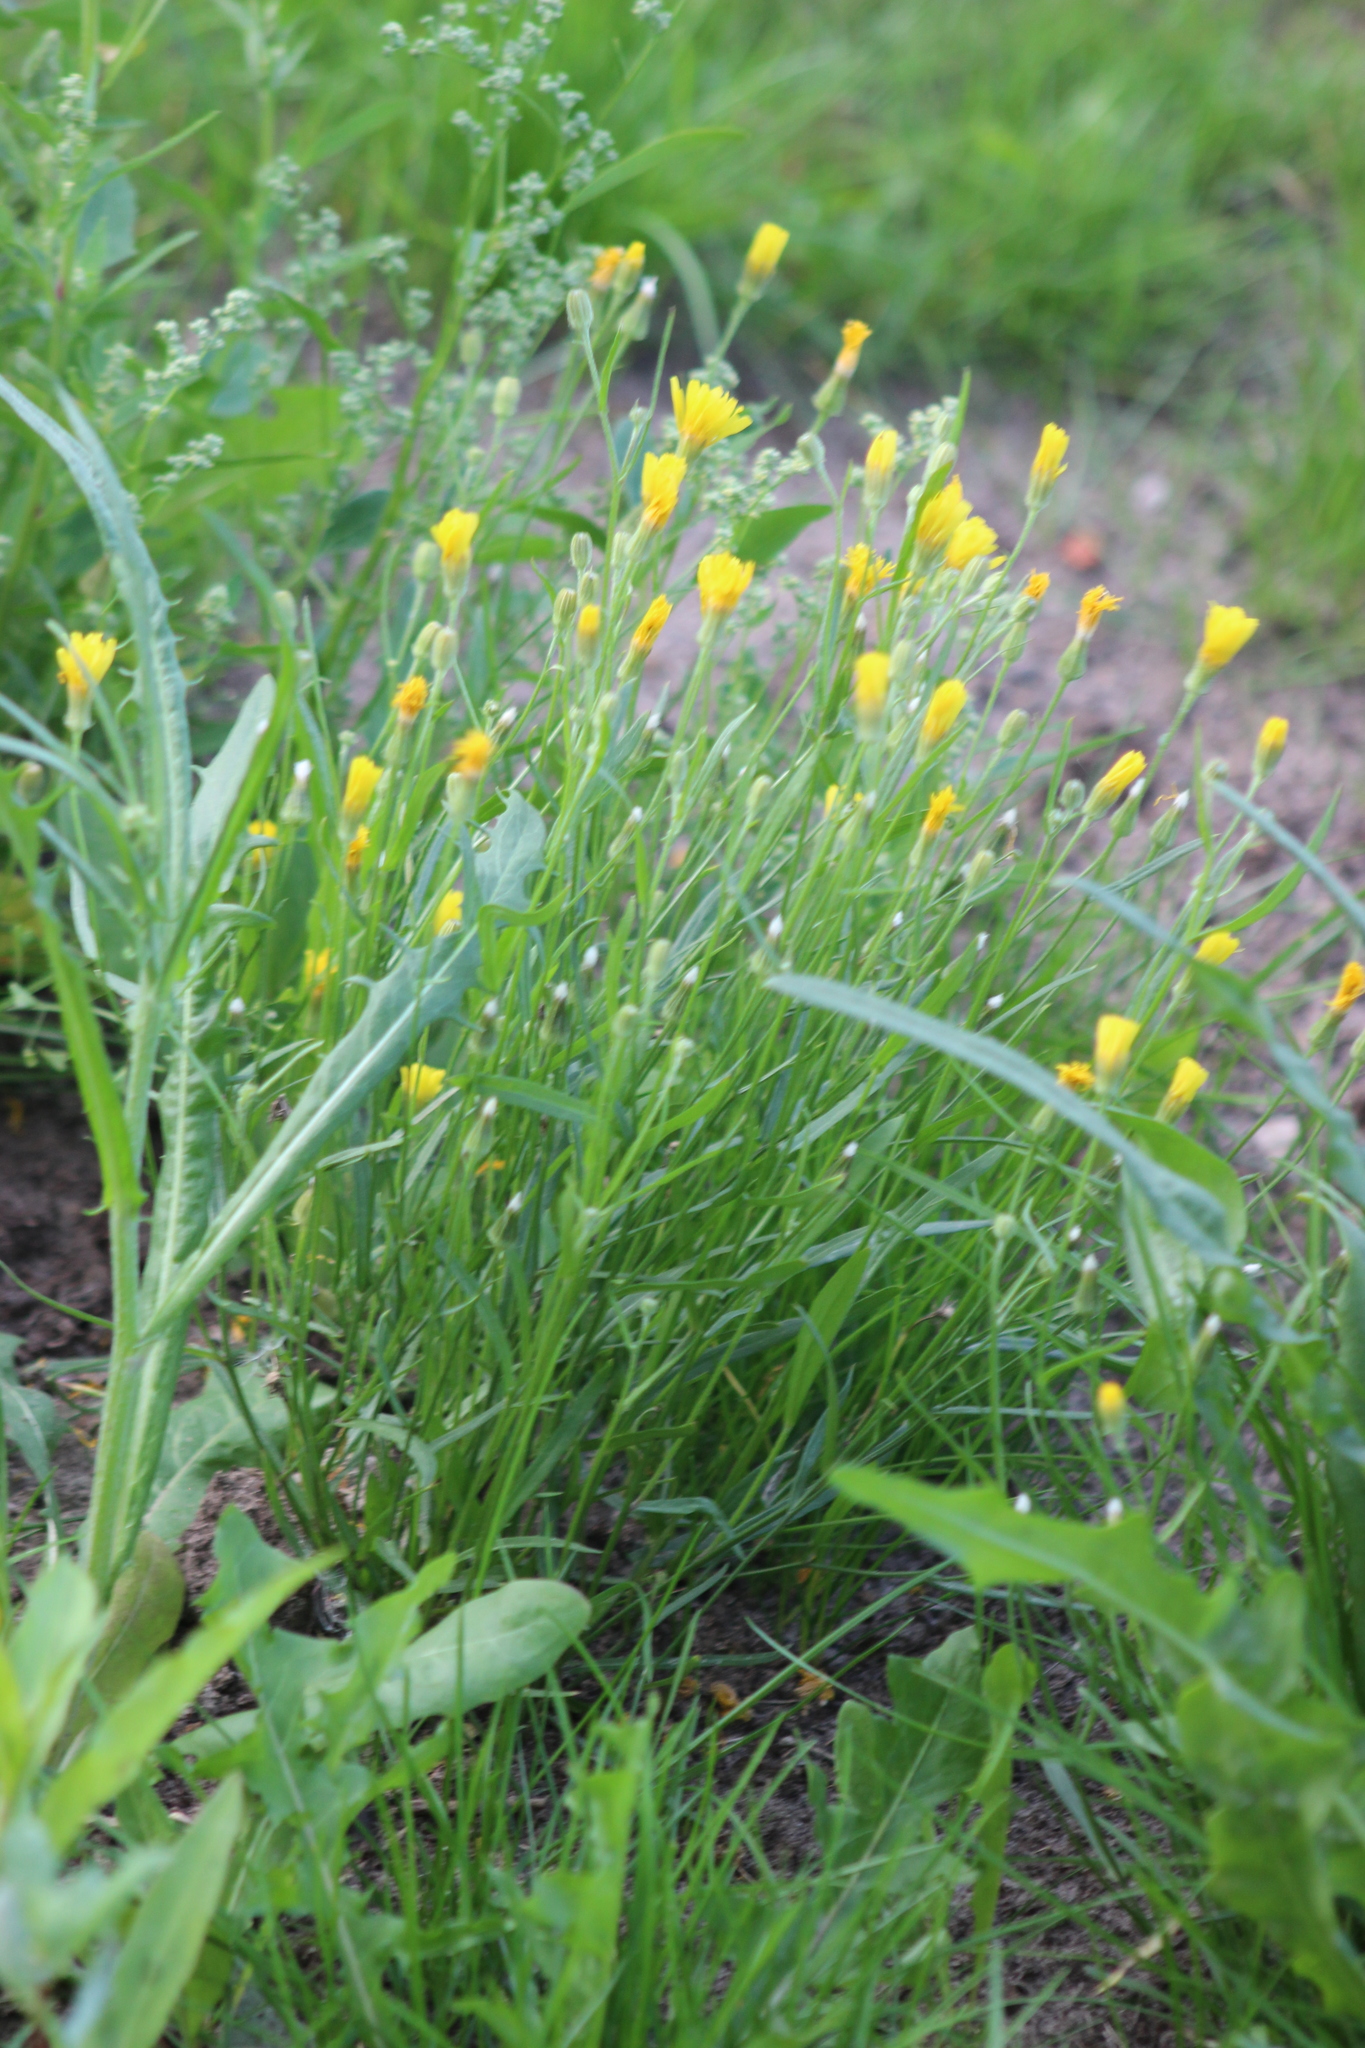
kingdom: Plantae
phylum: Tracheophyta
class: Magnoliopsida
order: Asterales
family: Asteraceae
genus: Crepis
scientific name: Crepis tectorum
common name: Narrow-leaved hawk's-beard
